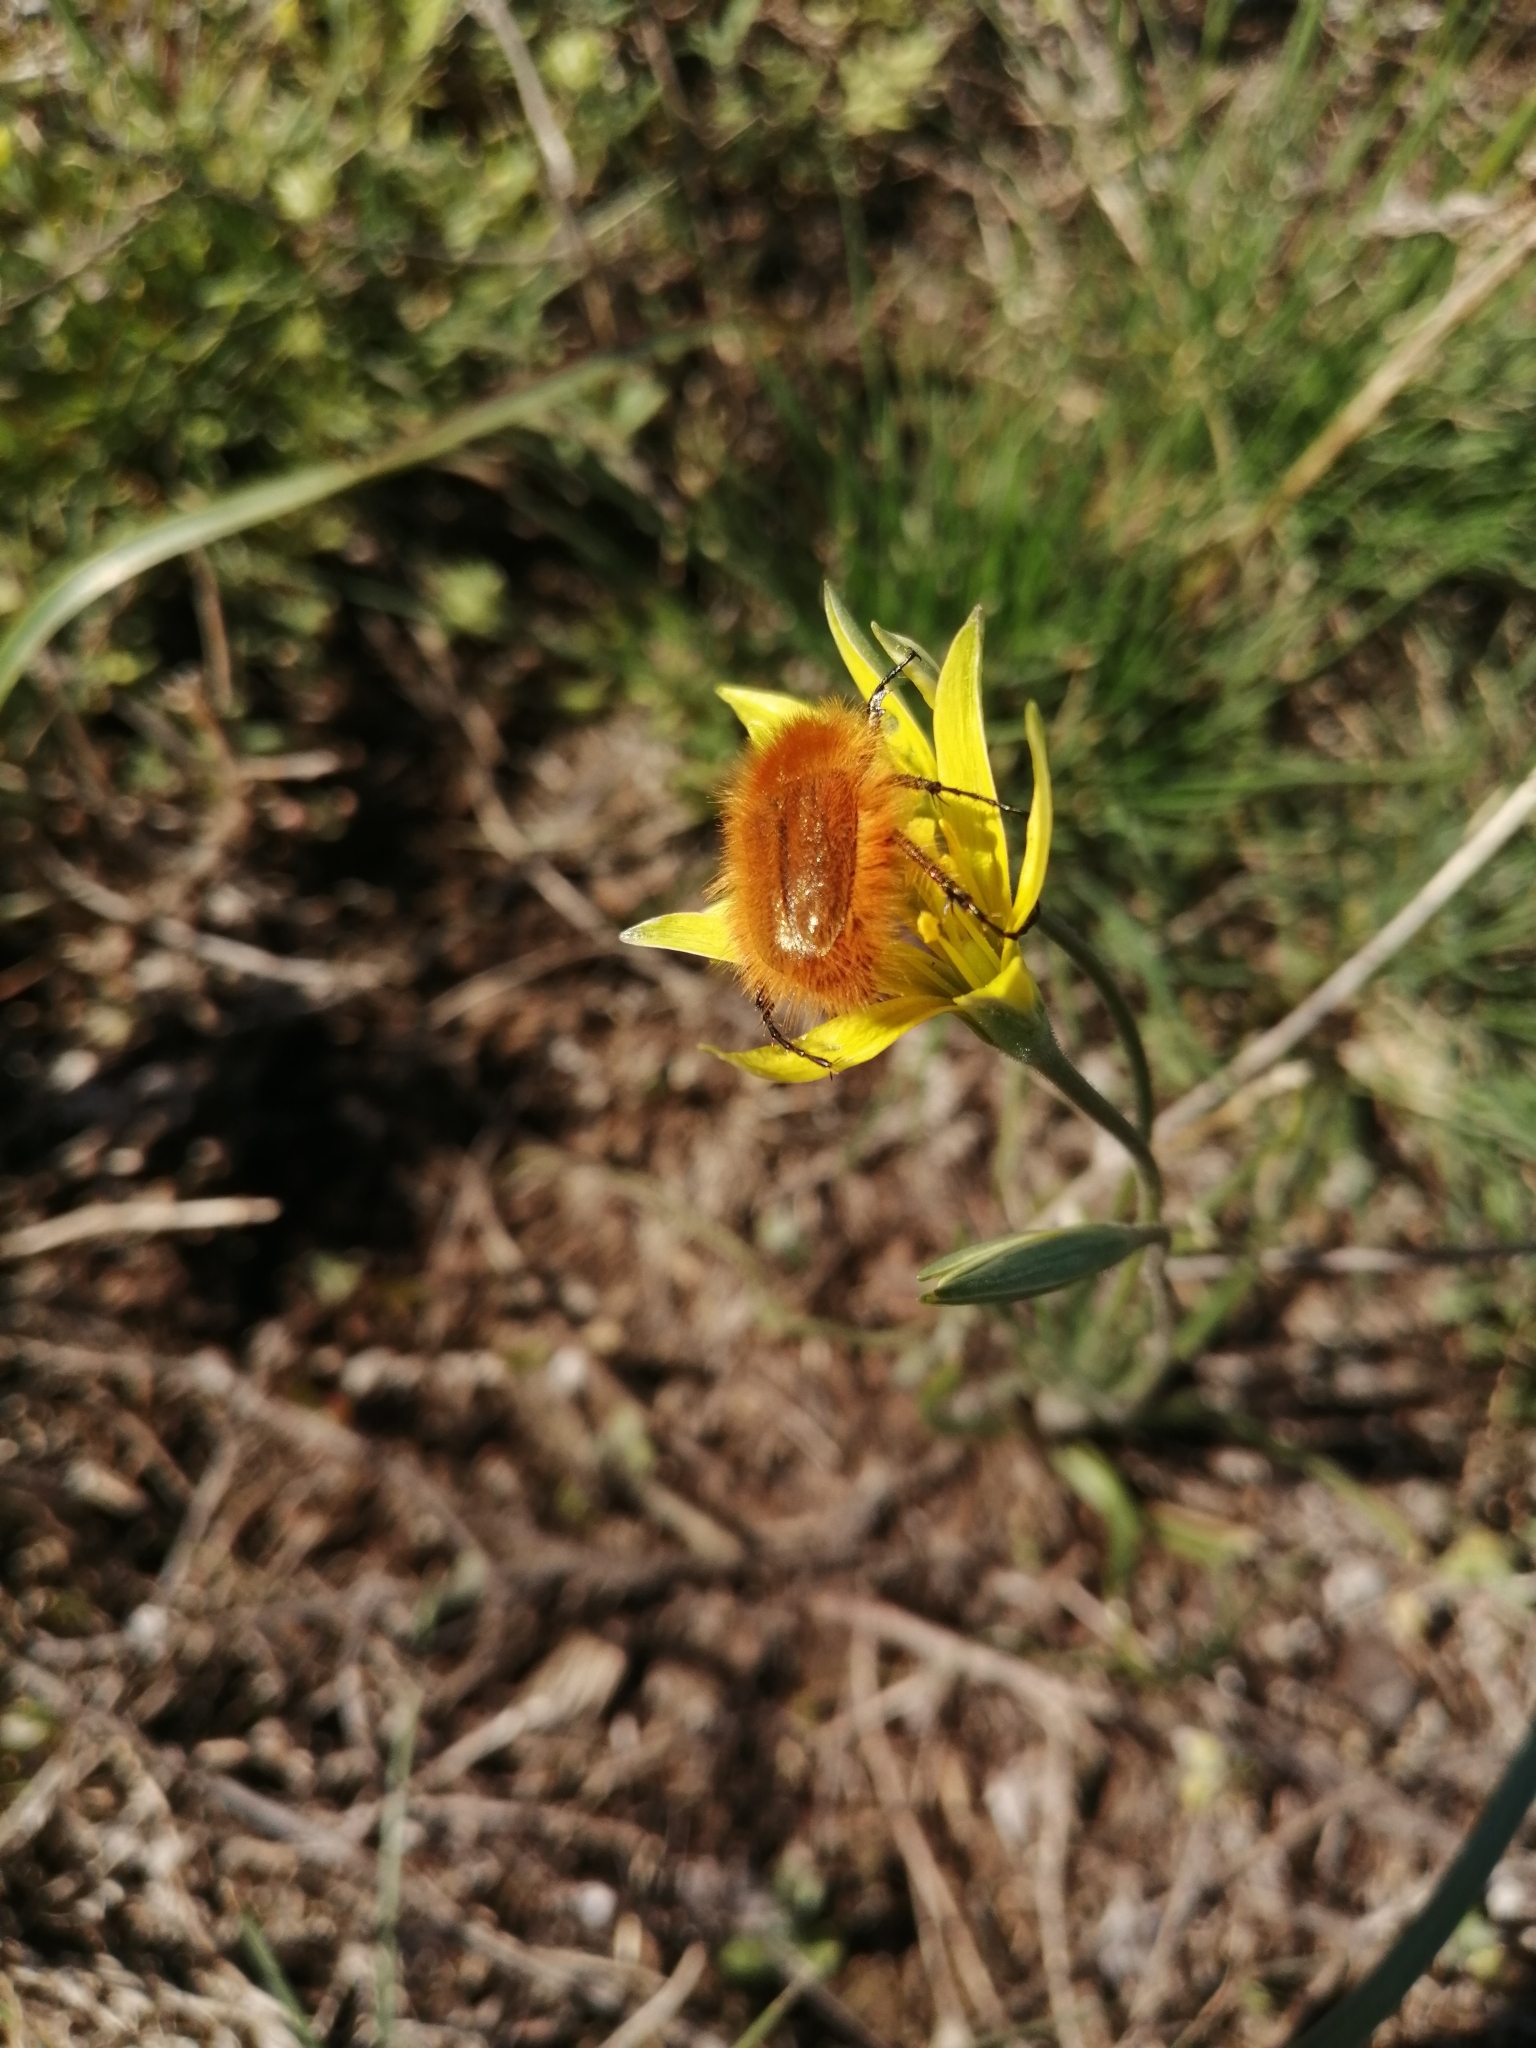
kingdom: Animalia
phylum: Arthropoda
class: Insecta
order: Coleoptera
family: Glaphyridae
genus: Pygopleurus
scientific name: Pygopleurus vulpes
